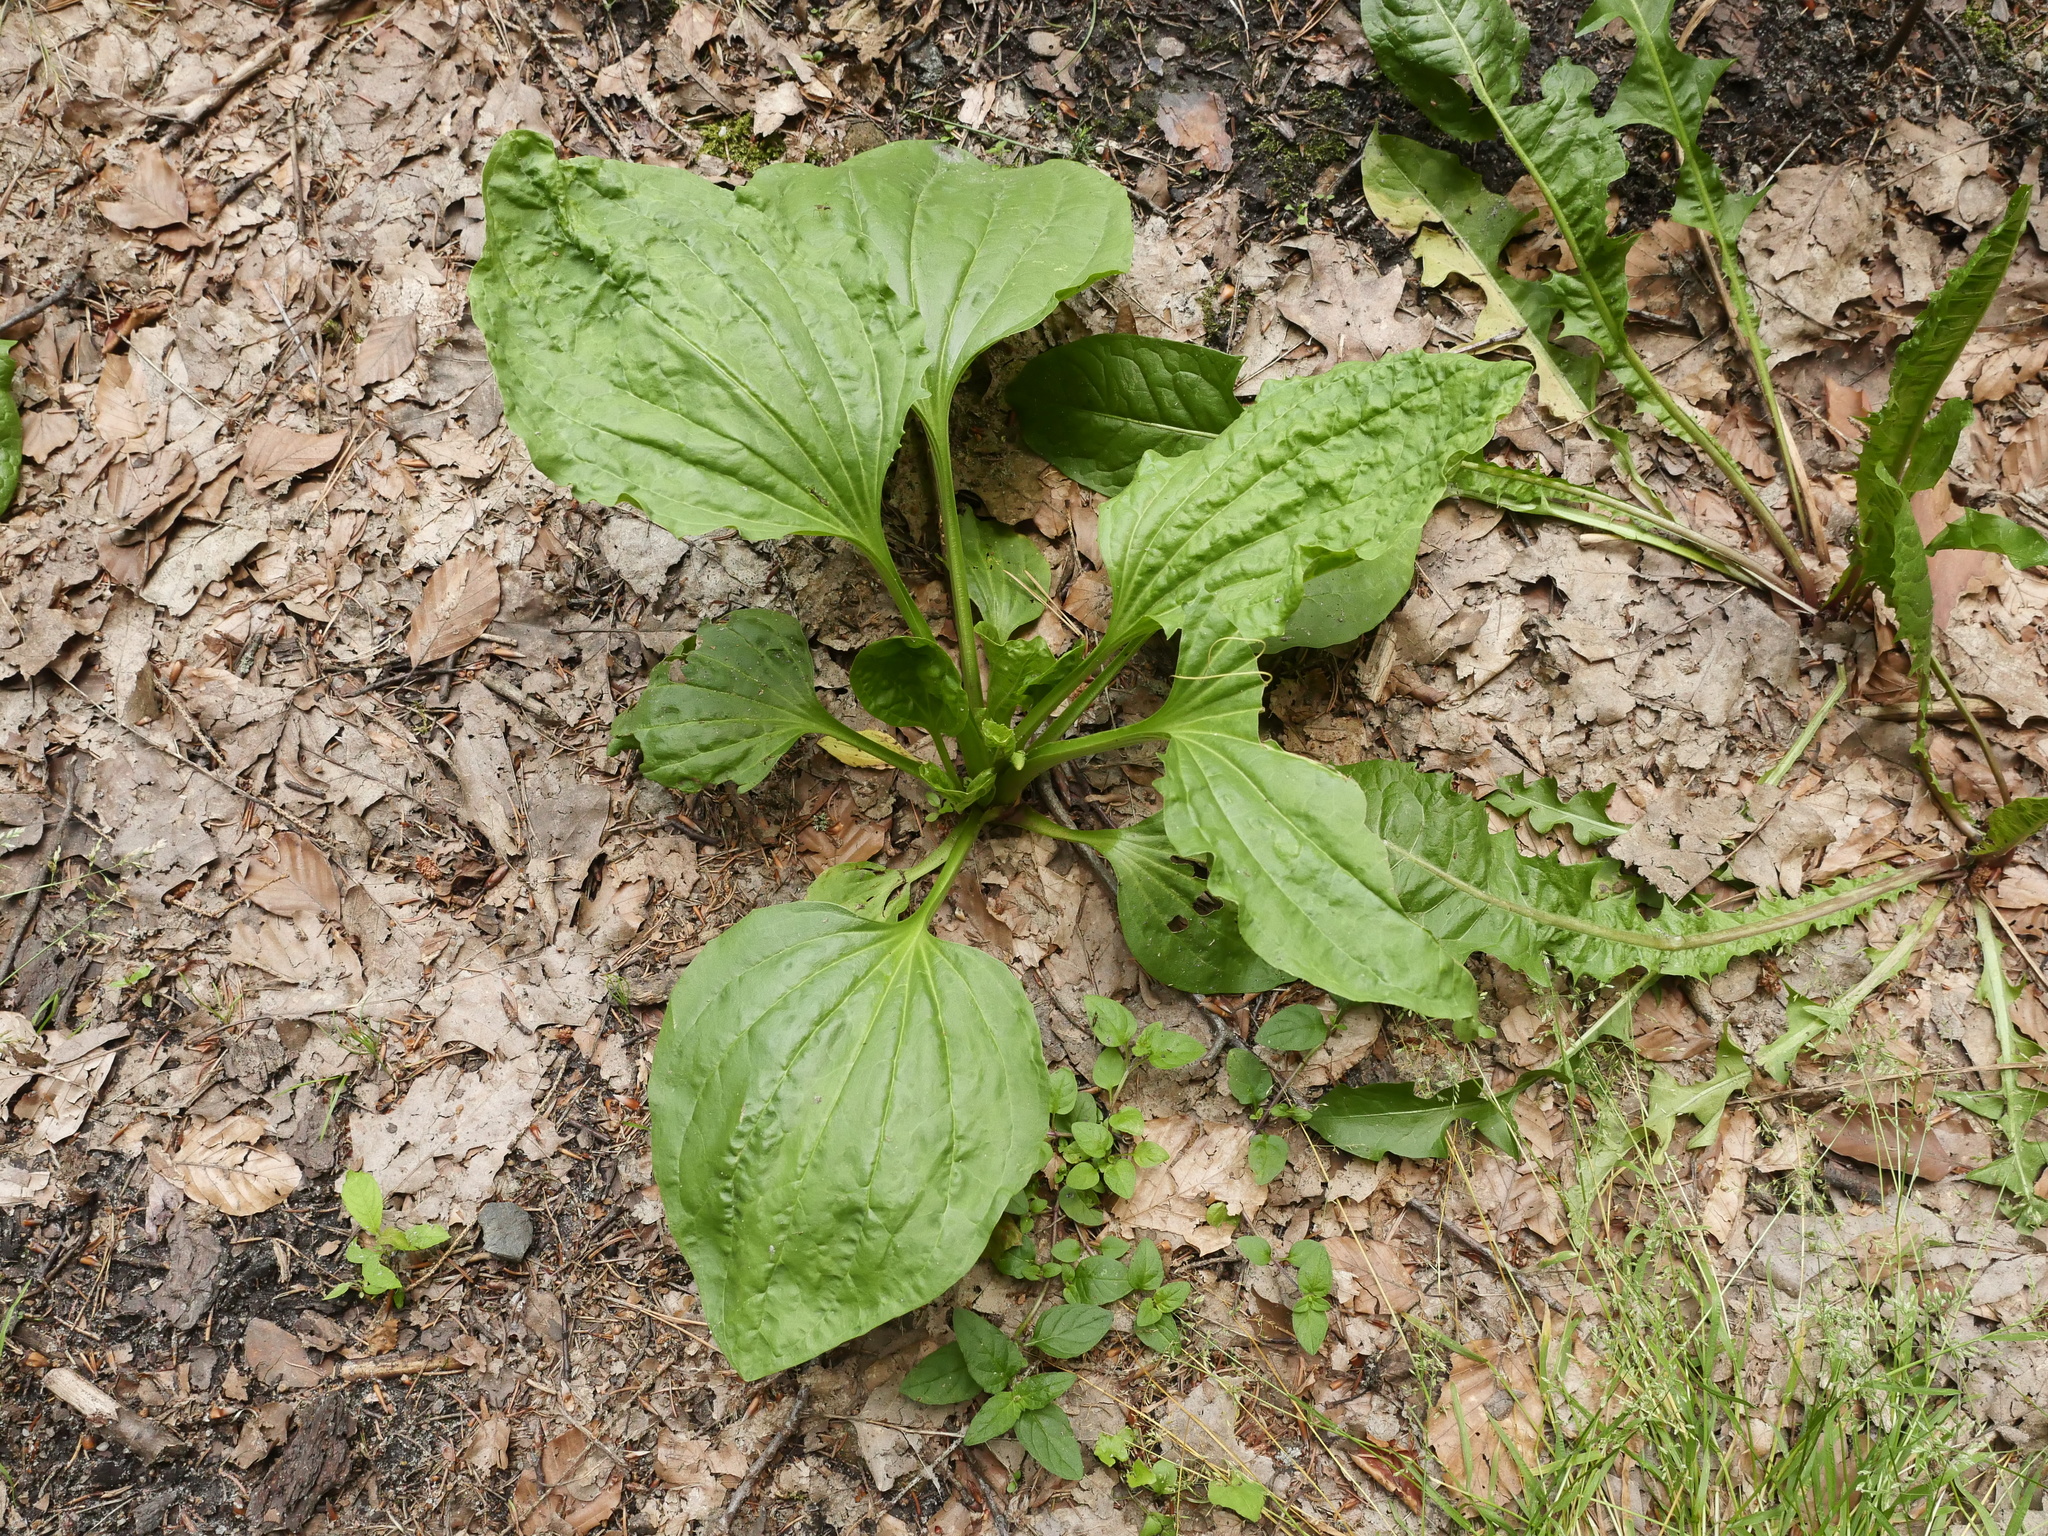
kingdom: Plantae
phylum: Tracheophyta
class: Magnoliopsida
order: Lamiales
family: Plantaginaceae
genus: Plantago
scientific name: Plantago major
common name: Common plantain
